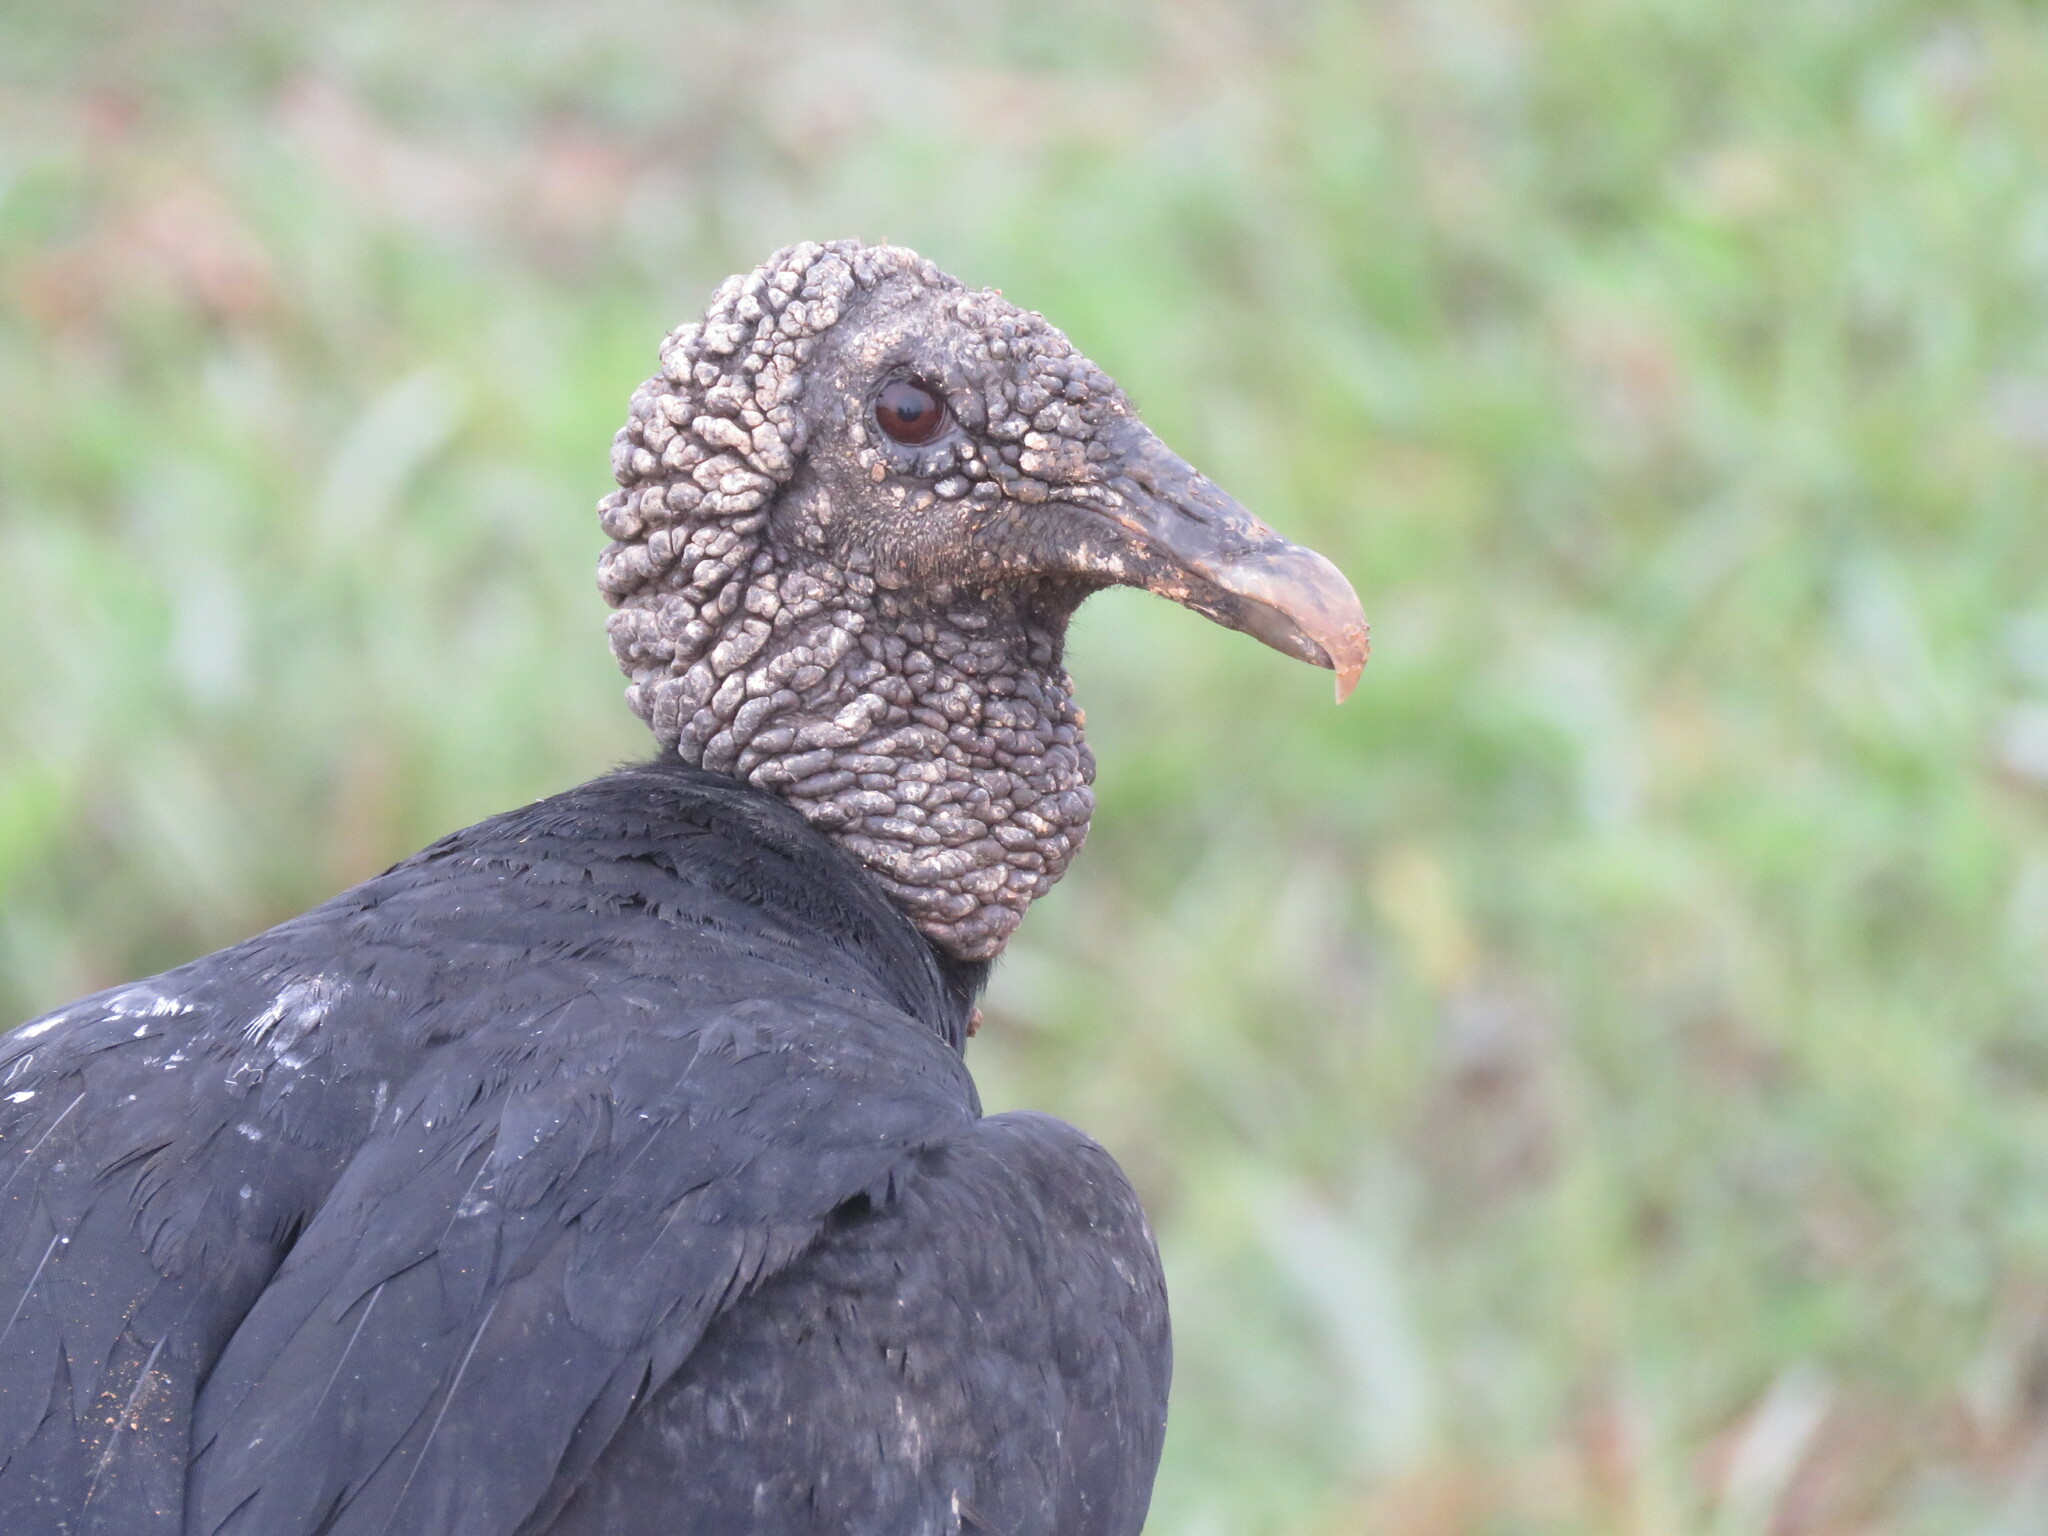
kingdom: Animalia
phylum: Chordata
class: Aves
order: Accipitriformes
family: Cathartidae
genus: Coragyps
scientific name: Coragyps atratus
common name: Black vulture
